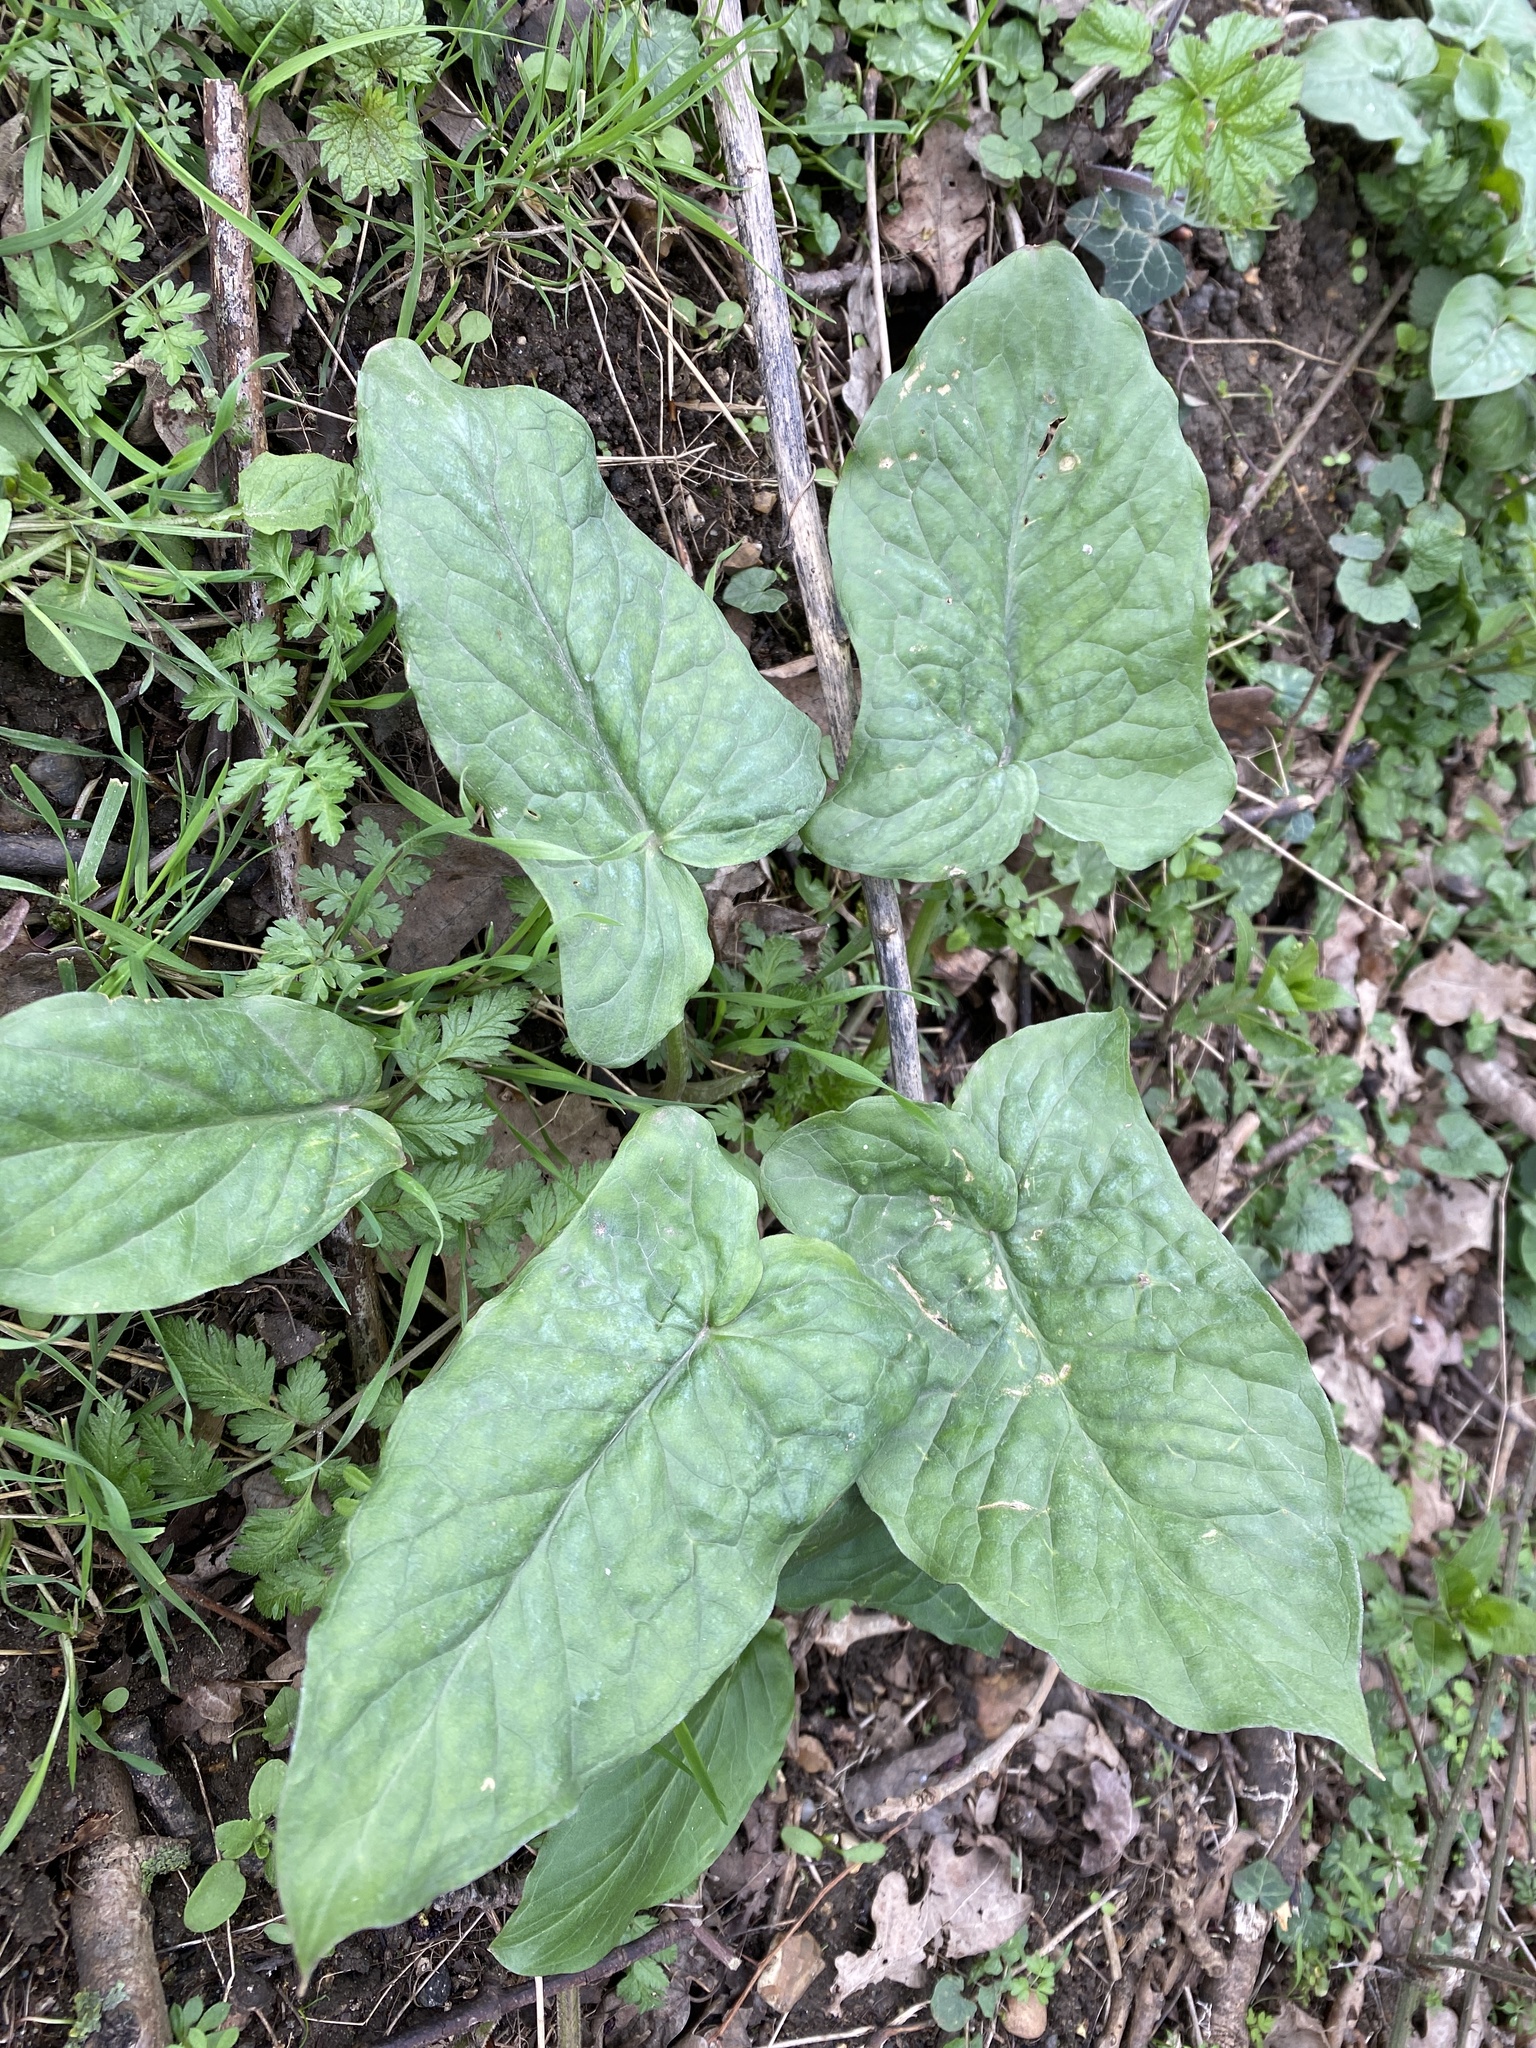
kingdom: Plantae
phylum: Tracheophyta
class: Liliopsida
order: Alismatales
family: Araceae
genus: Arum
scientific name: Arum maculatum
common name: Lords-and-ladies
